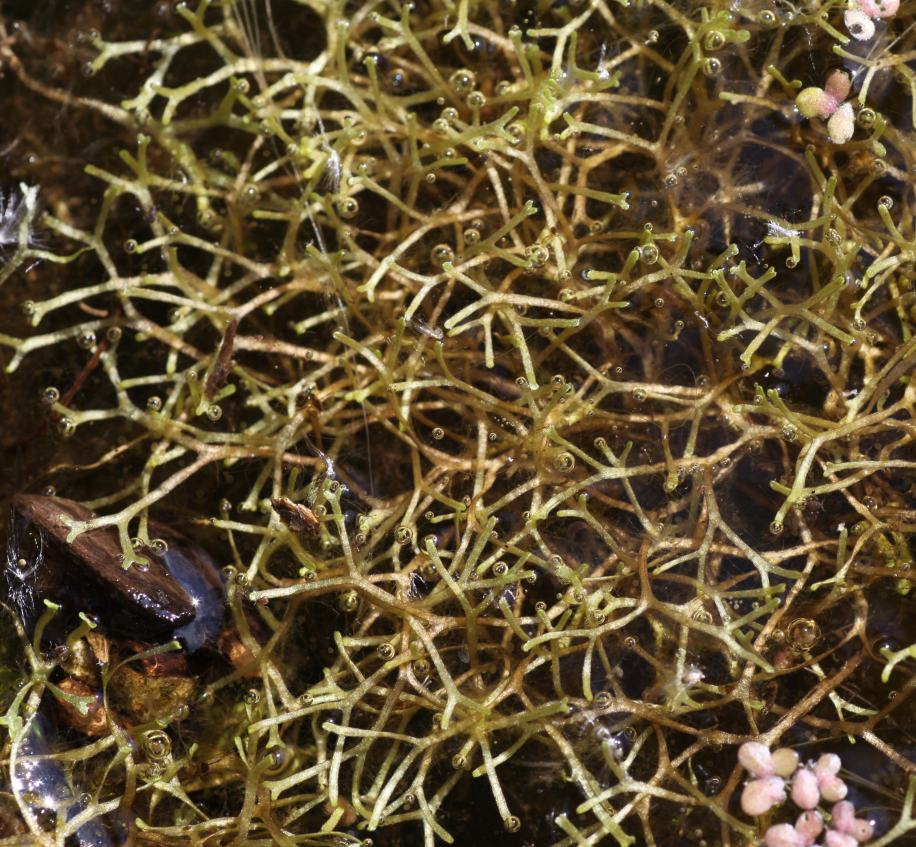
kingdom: Plantae
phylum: Marchantiophyta
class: Marchantiopsida
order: Marchantiales
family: Ricciaceae
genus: Riccia
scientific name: Riccia fluitans
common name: Floating crystalwort
